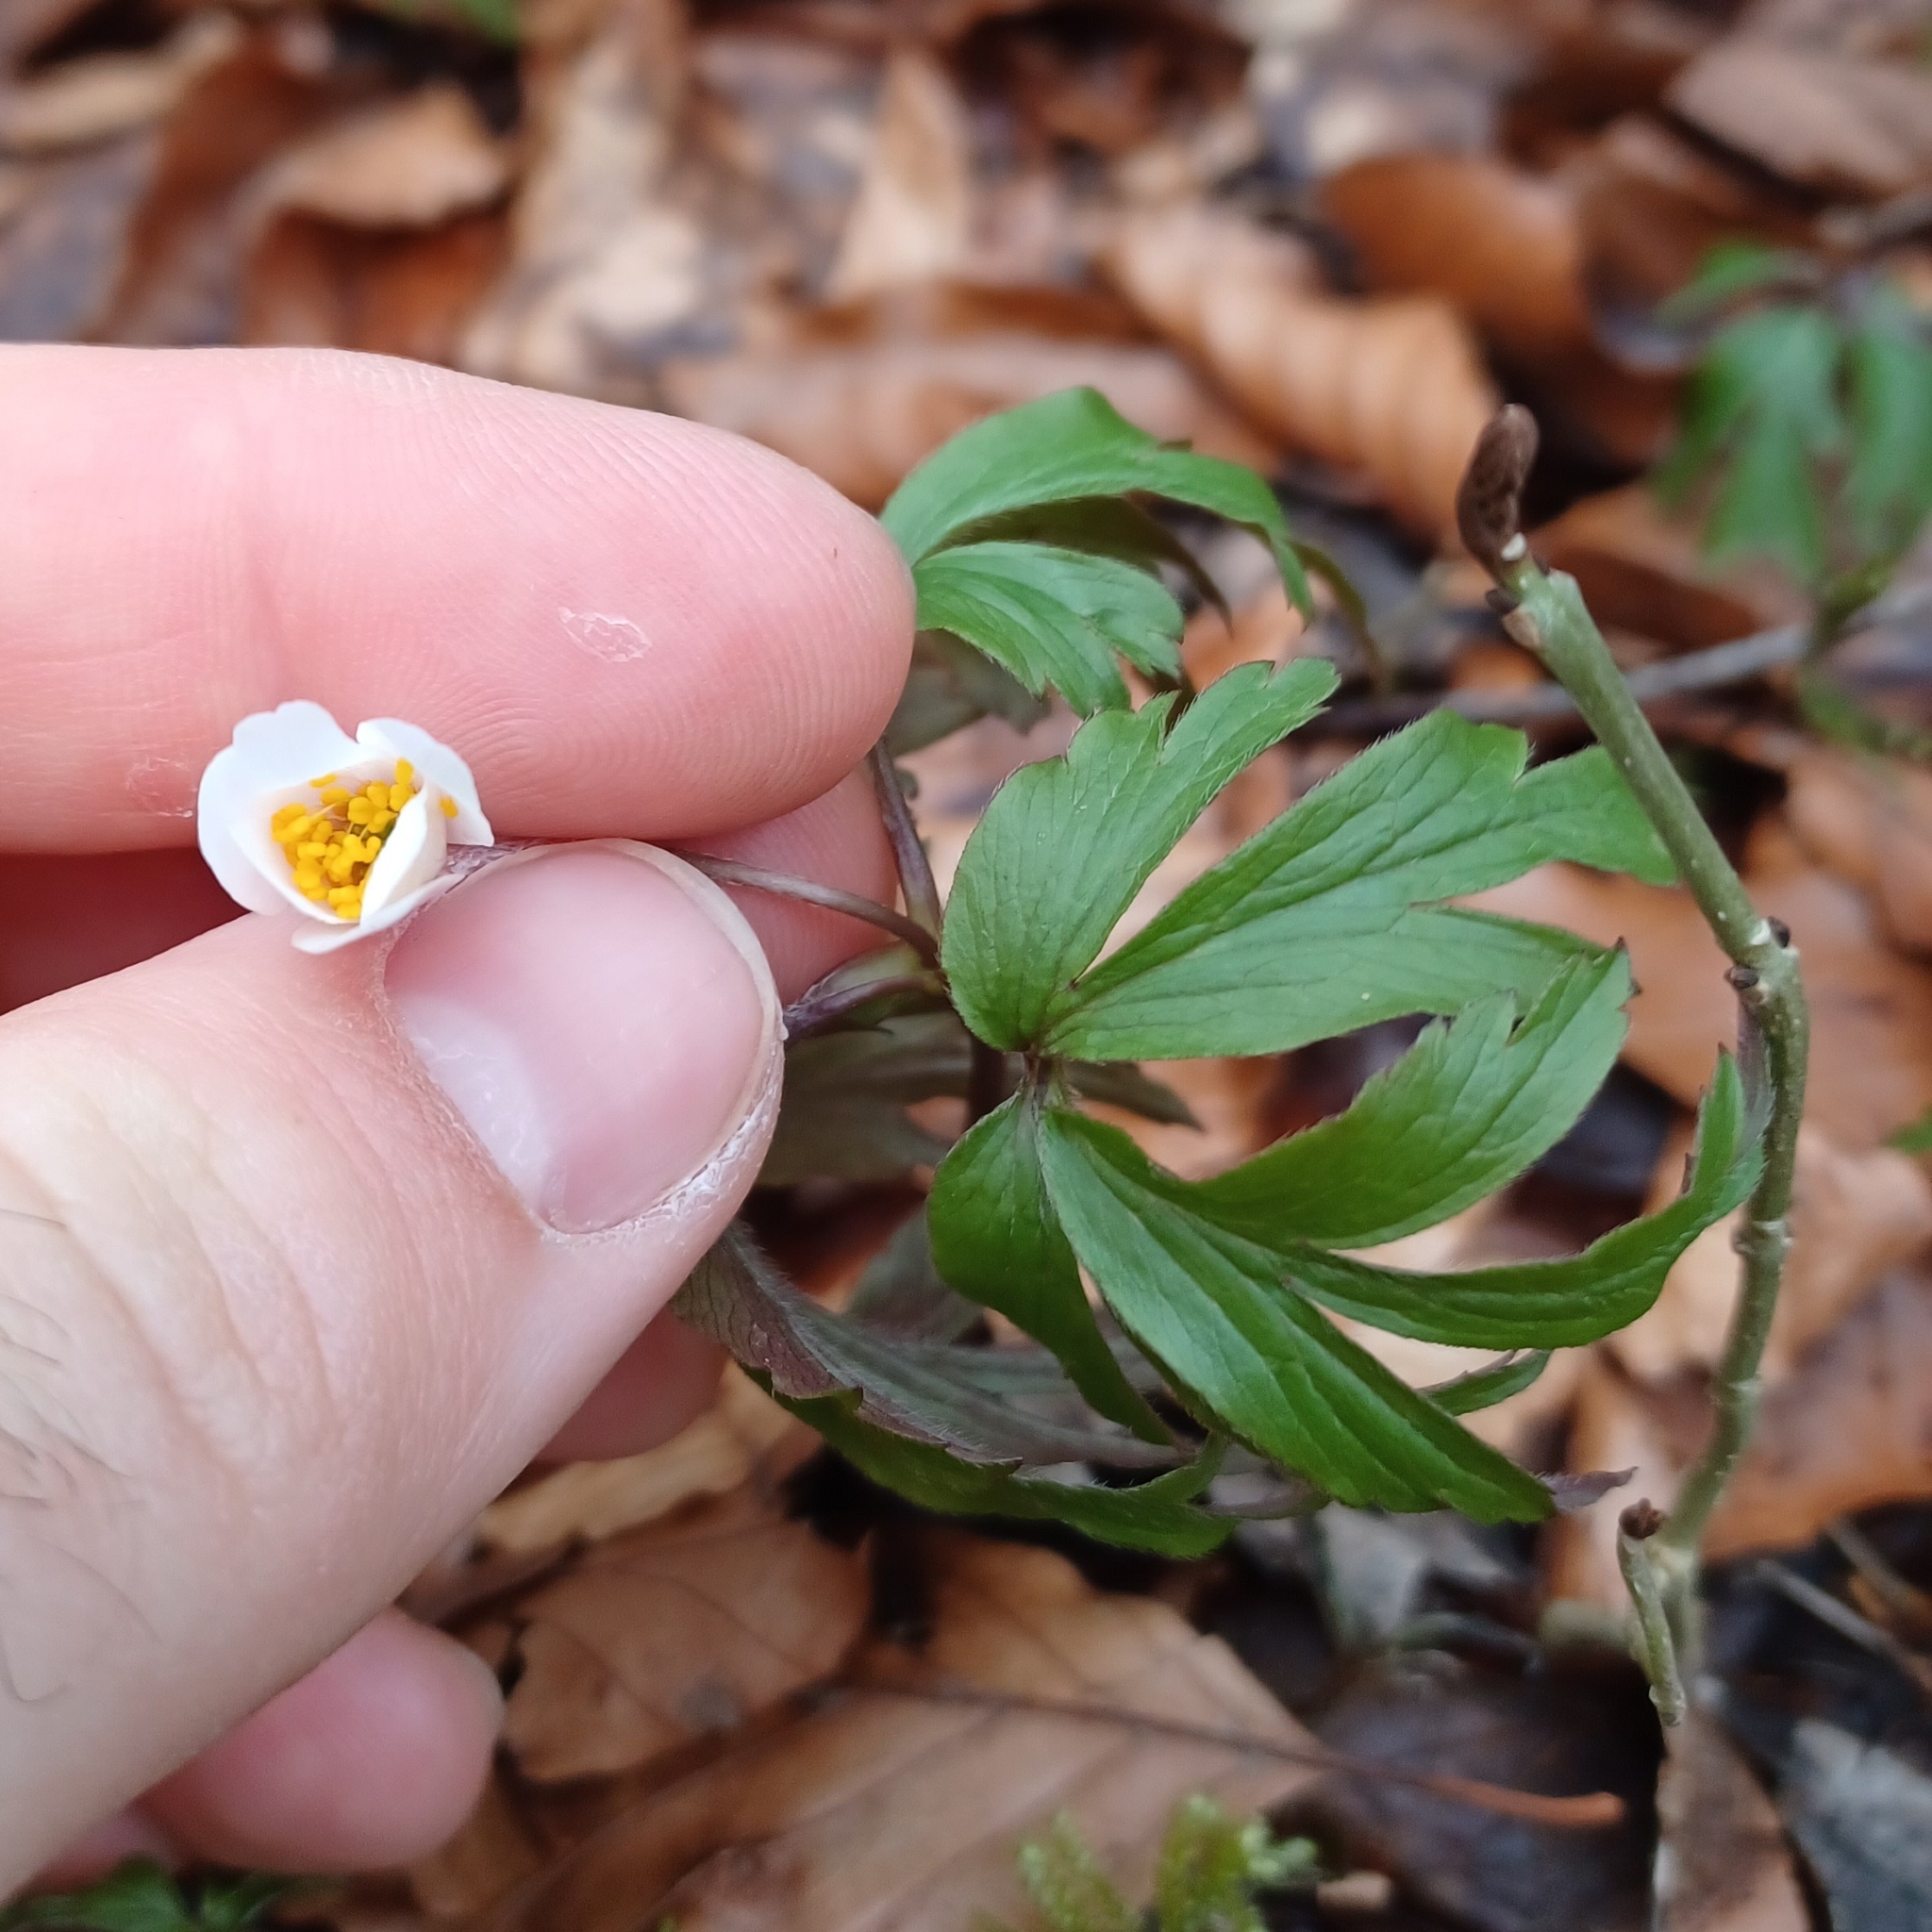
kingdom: Plantae
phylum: Tracheophyta
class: Magnoliopsida
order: Ranunculales
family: Ranunculaceae
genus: Anemone
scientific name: Anemone nemorosa
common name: Wood anemone
